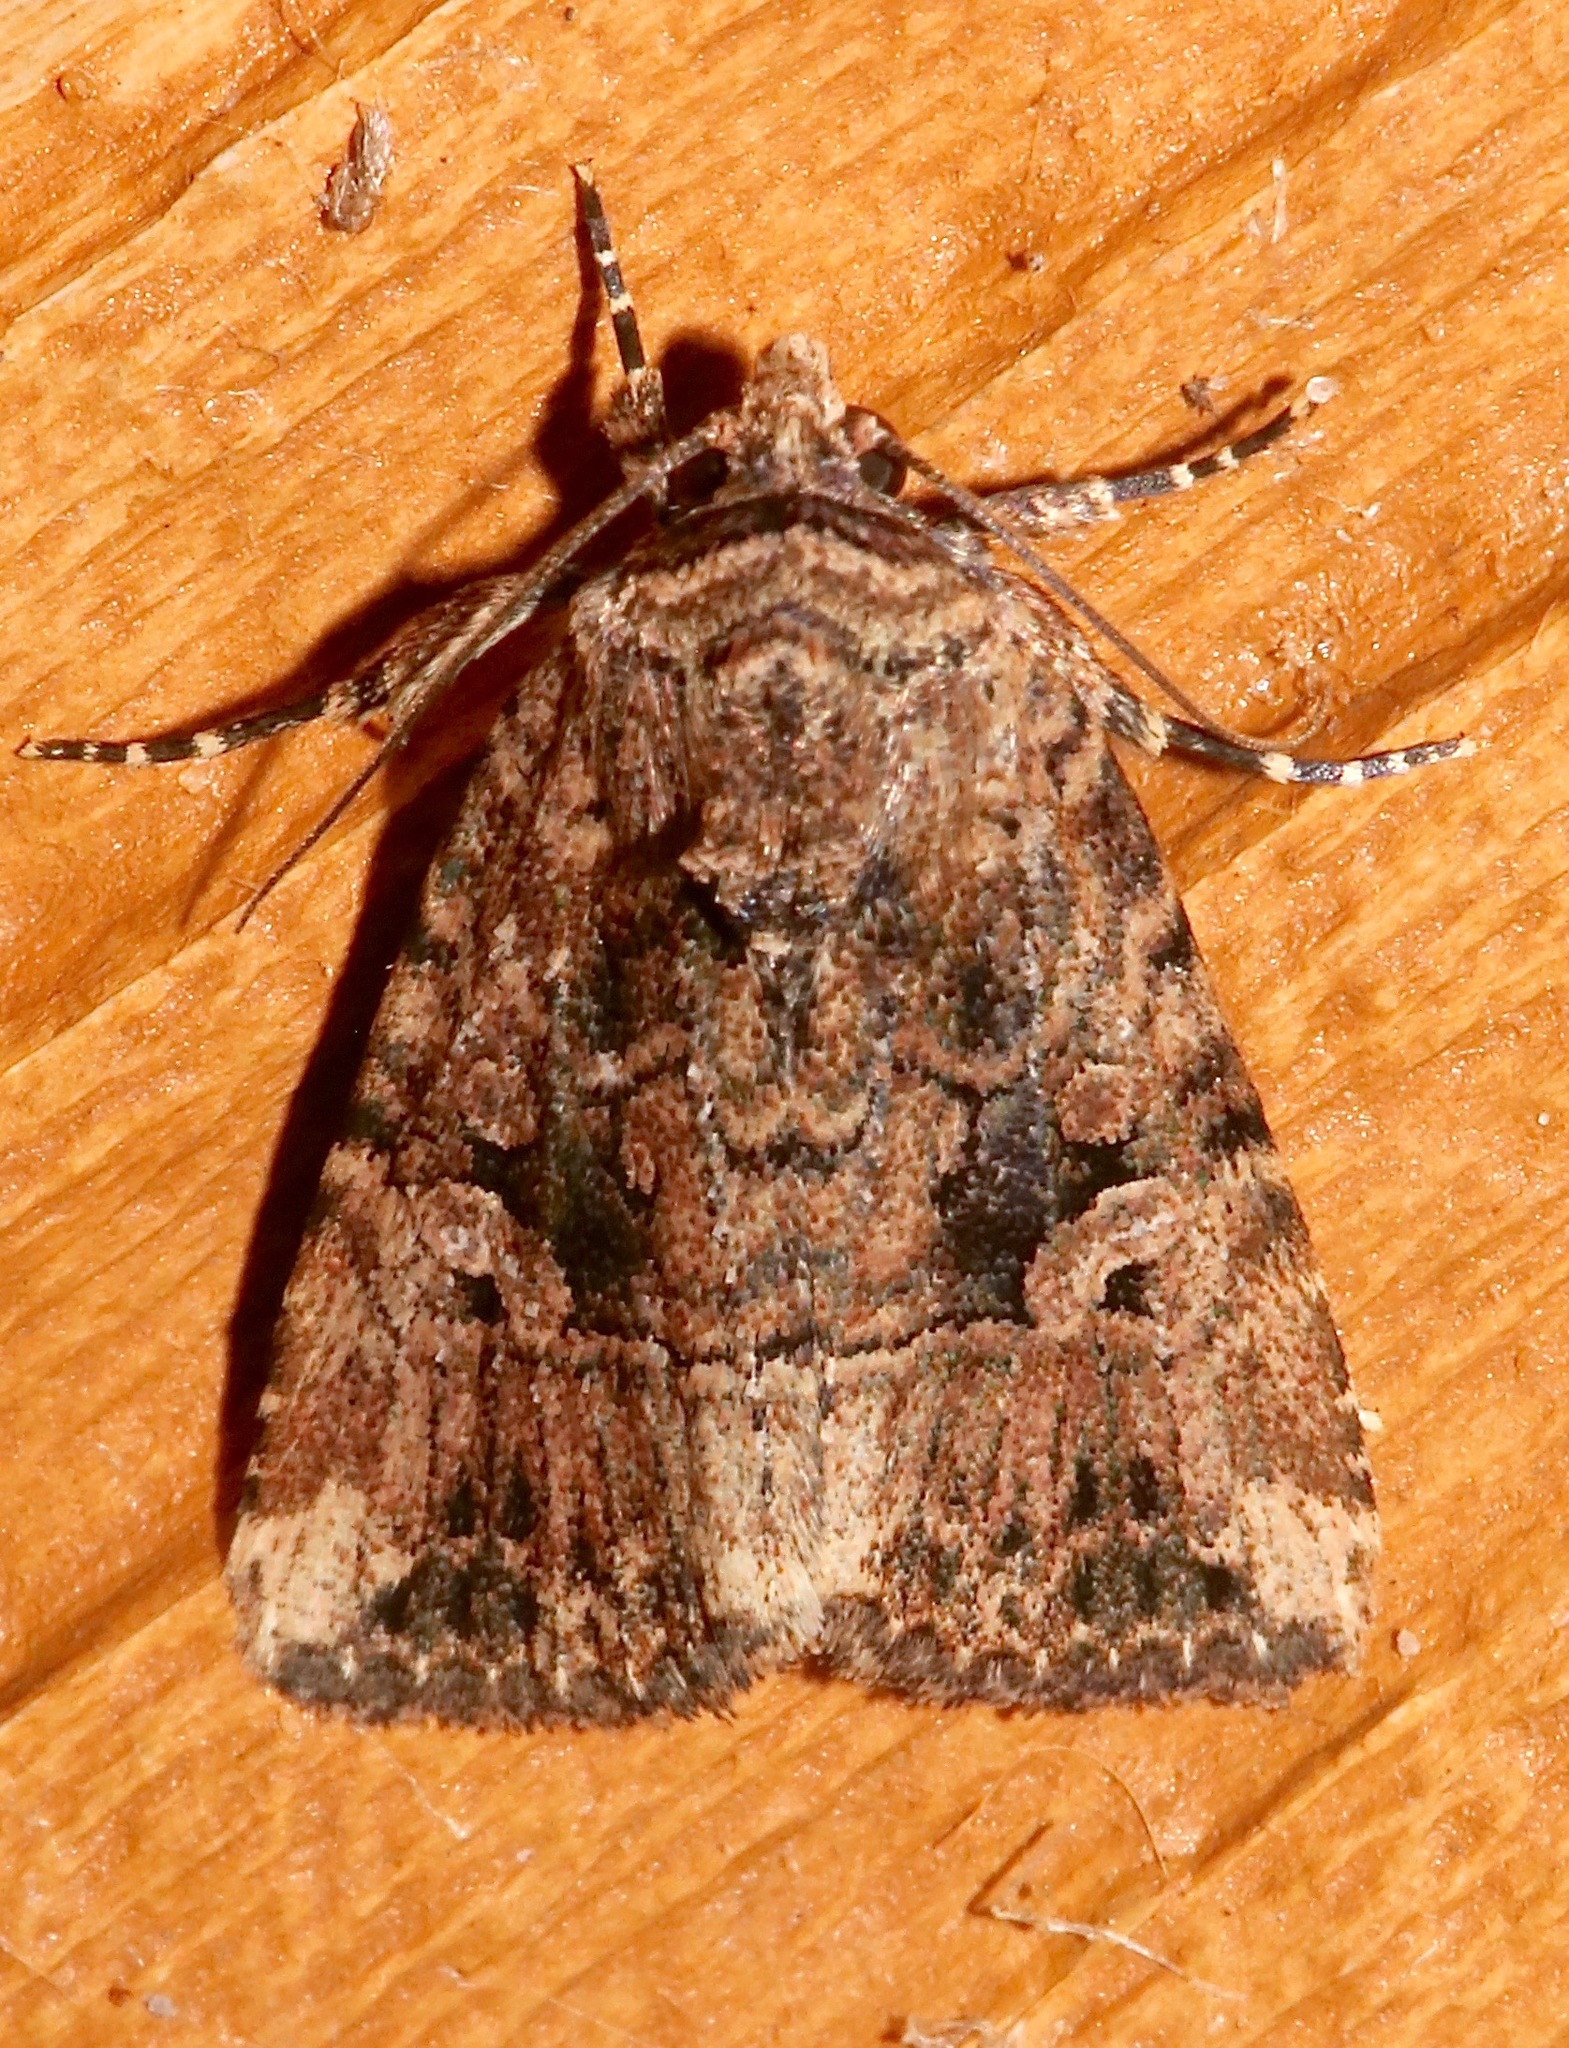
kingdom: Animalia
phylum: Arthropoda
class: Insecta
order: Lepidoptera
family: Noctuidae
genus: Elaphria
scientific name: Elaphria exesa
